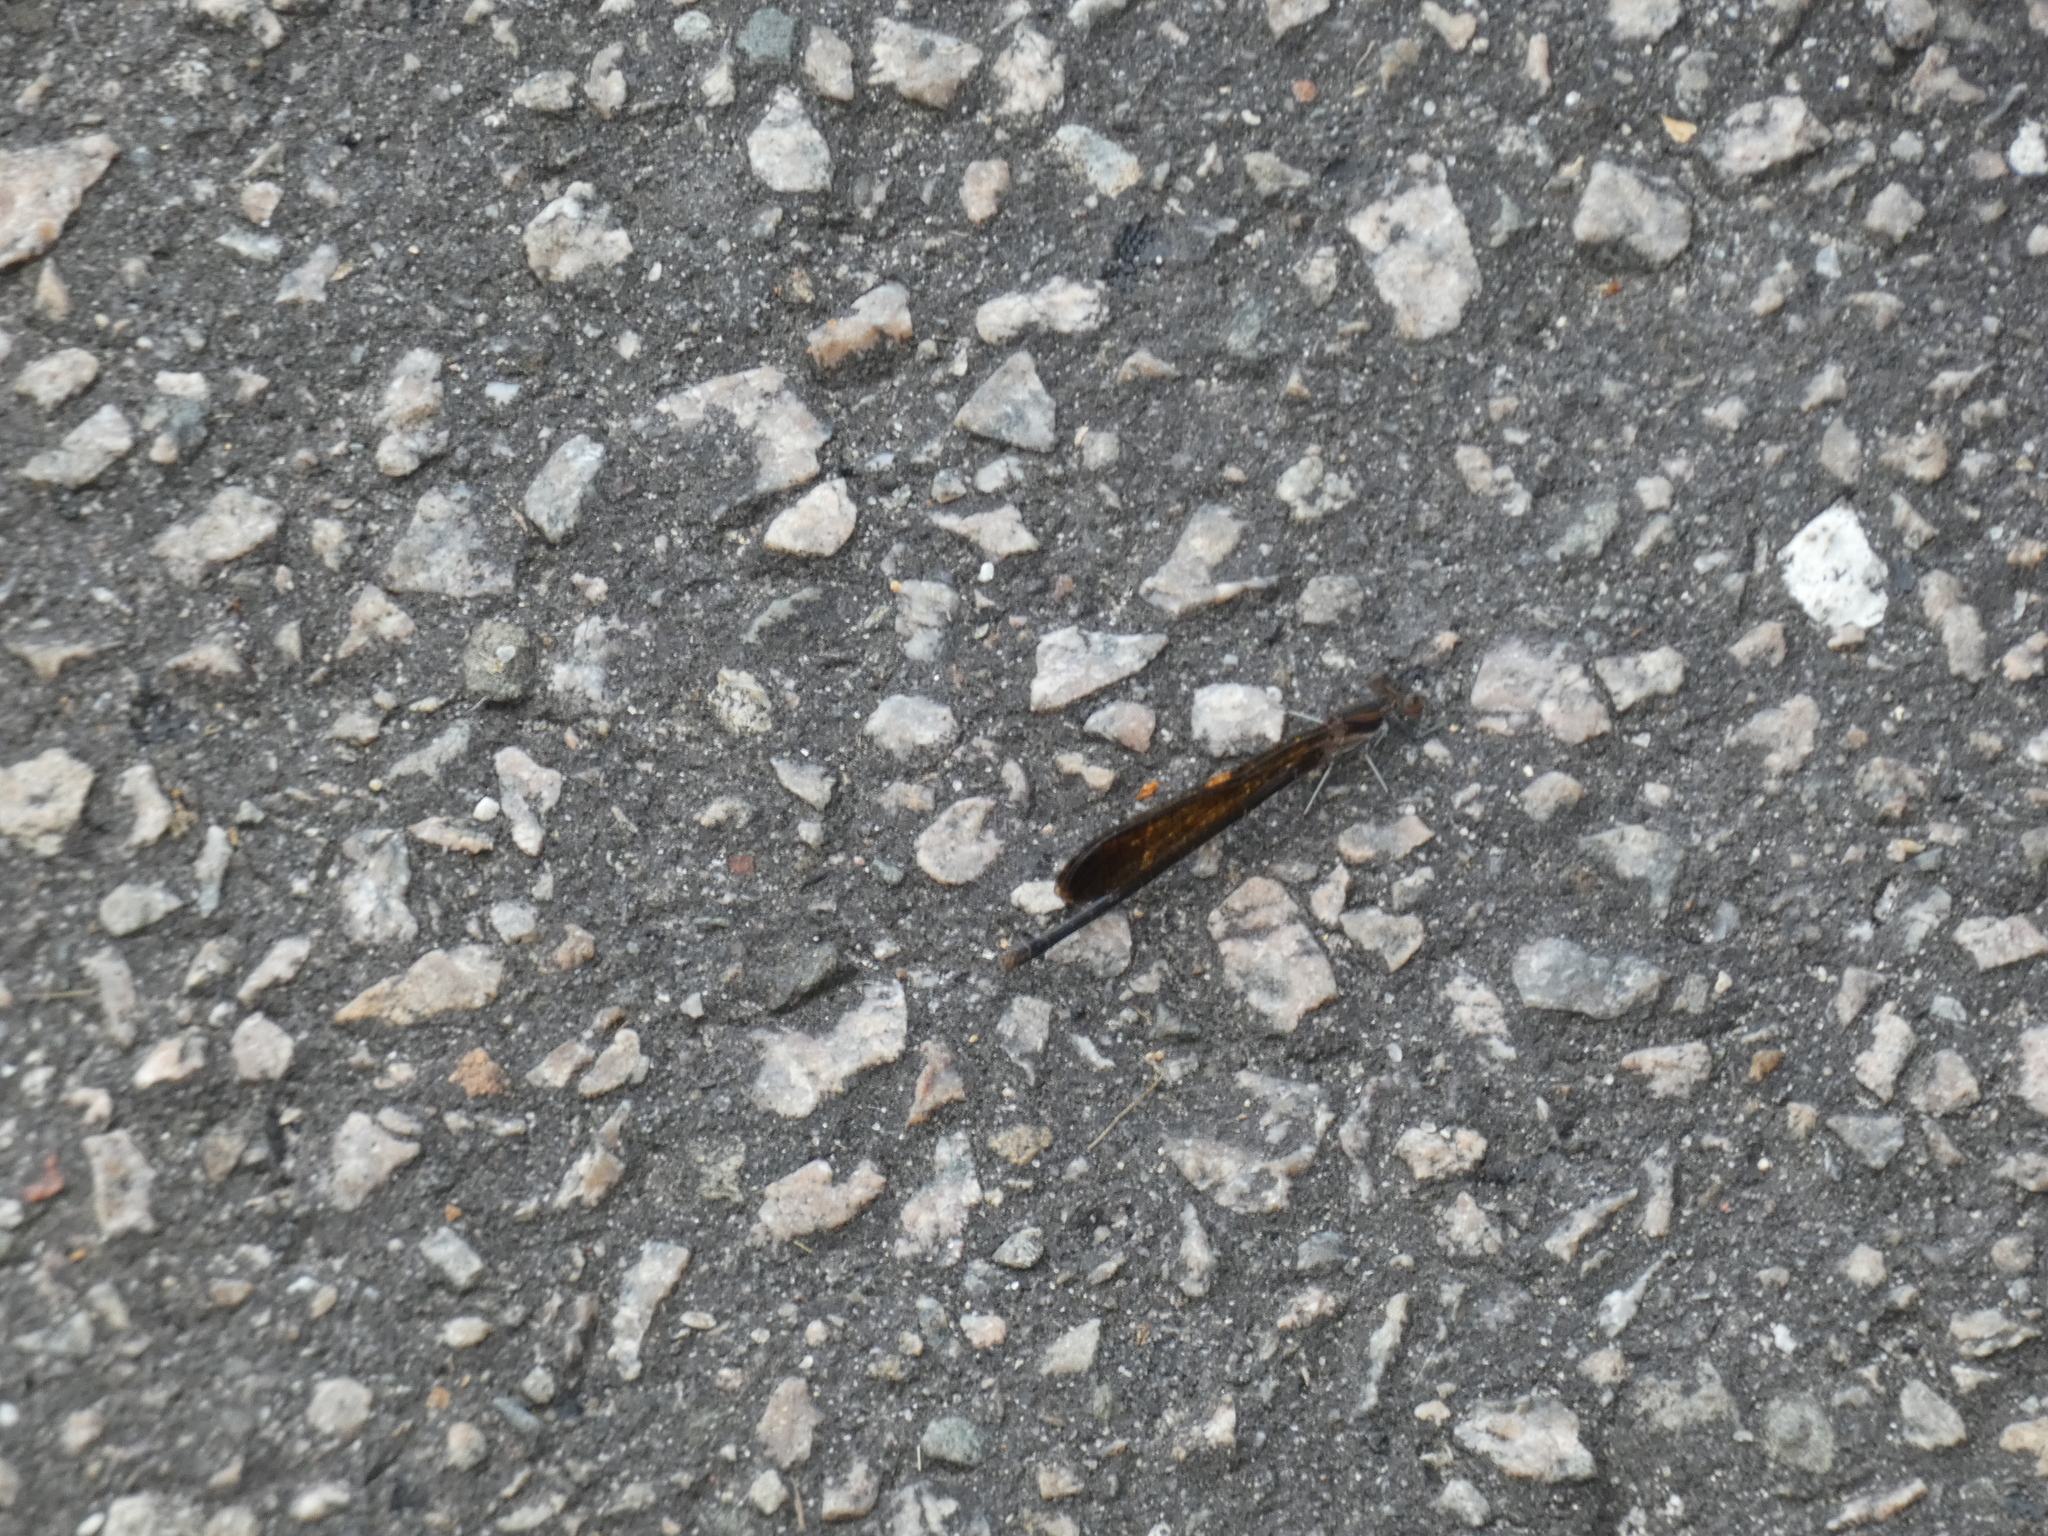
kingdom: Animalia
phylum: Arthropoda
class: Insecta
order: Odonata
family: Coenagrionidae
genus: Argia
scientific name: Argia fumipennis
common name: Variable dancer
